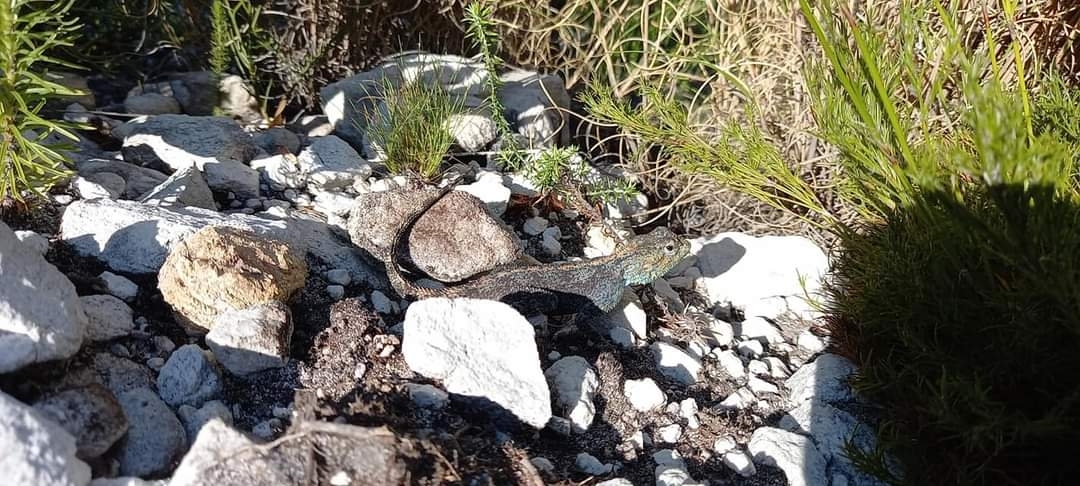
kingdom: Animalia
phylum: Chordata
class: Squamata
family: Agamidae
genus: Agama
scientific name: Agama atra
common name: Southern african rock agama
